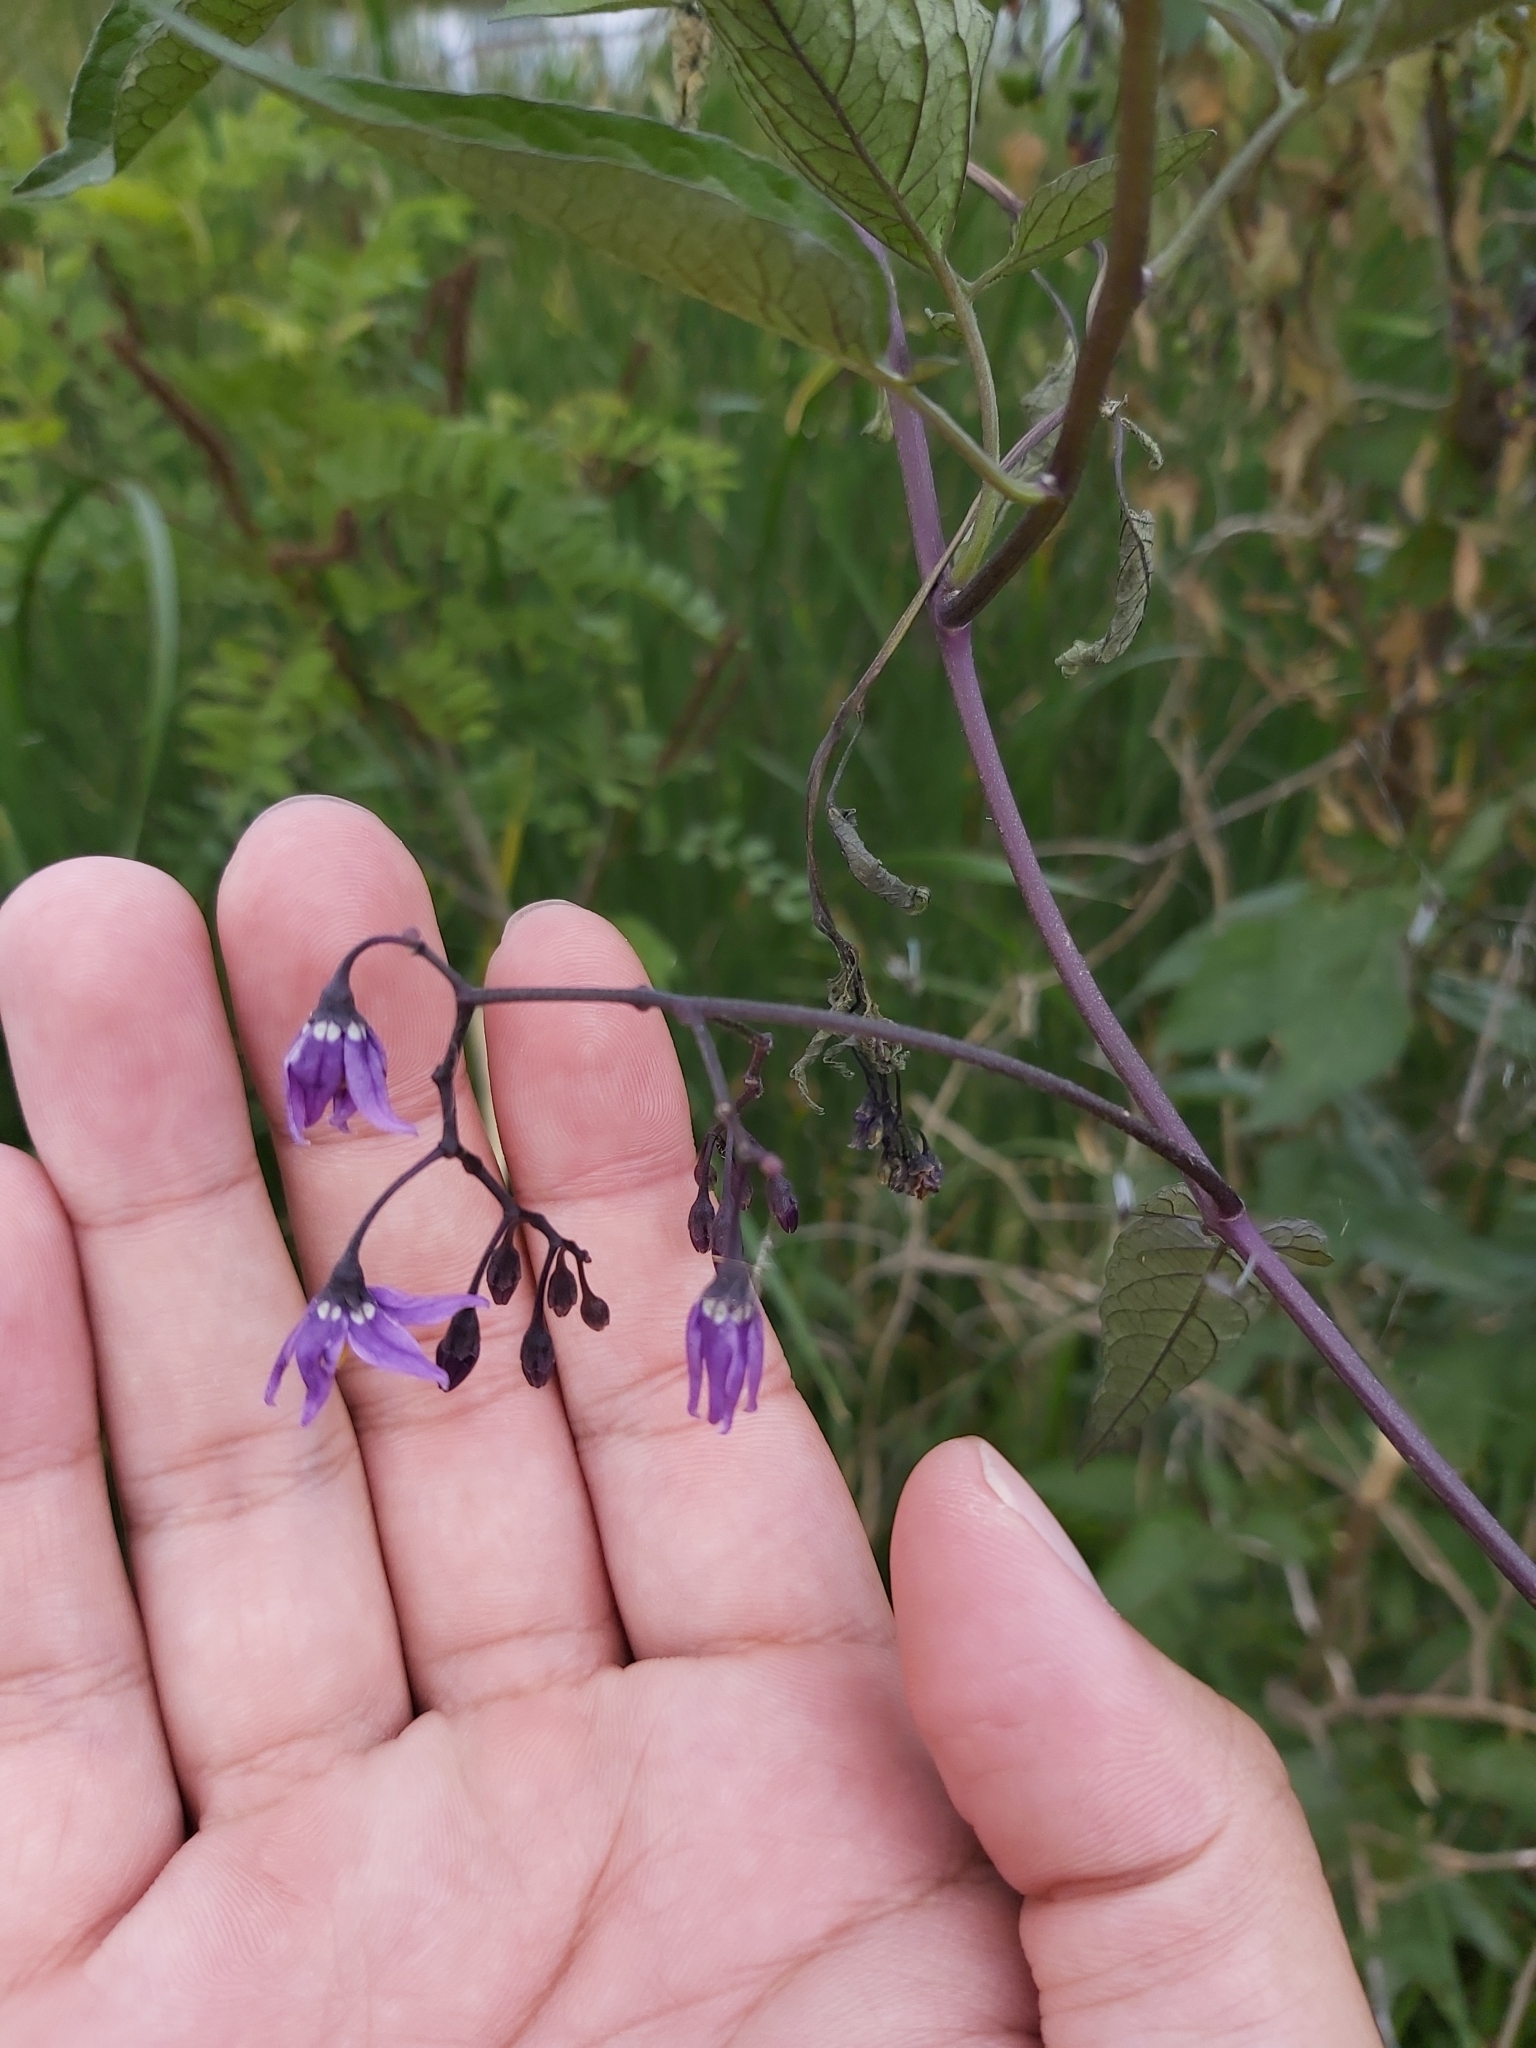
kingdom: Plantae
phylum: Tracheophyta
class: Magnoliopsida
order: Solanales
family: Solanaceae
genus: Solanum
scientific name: Solanum dulcamara
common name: Climbing nightshade
